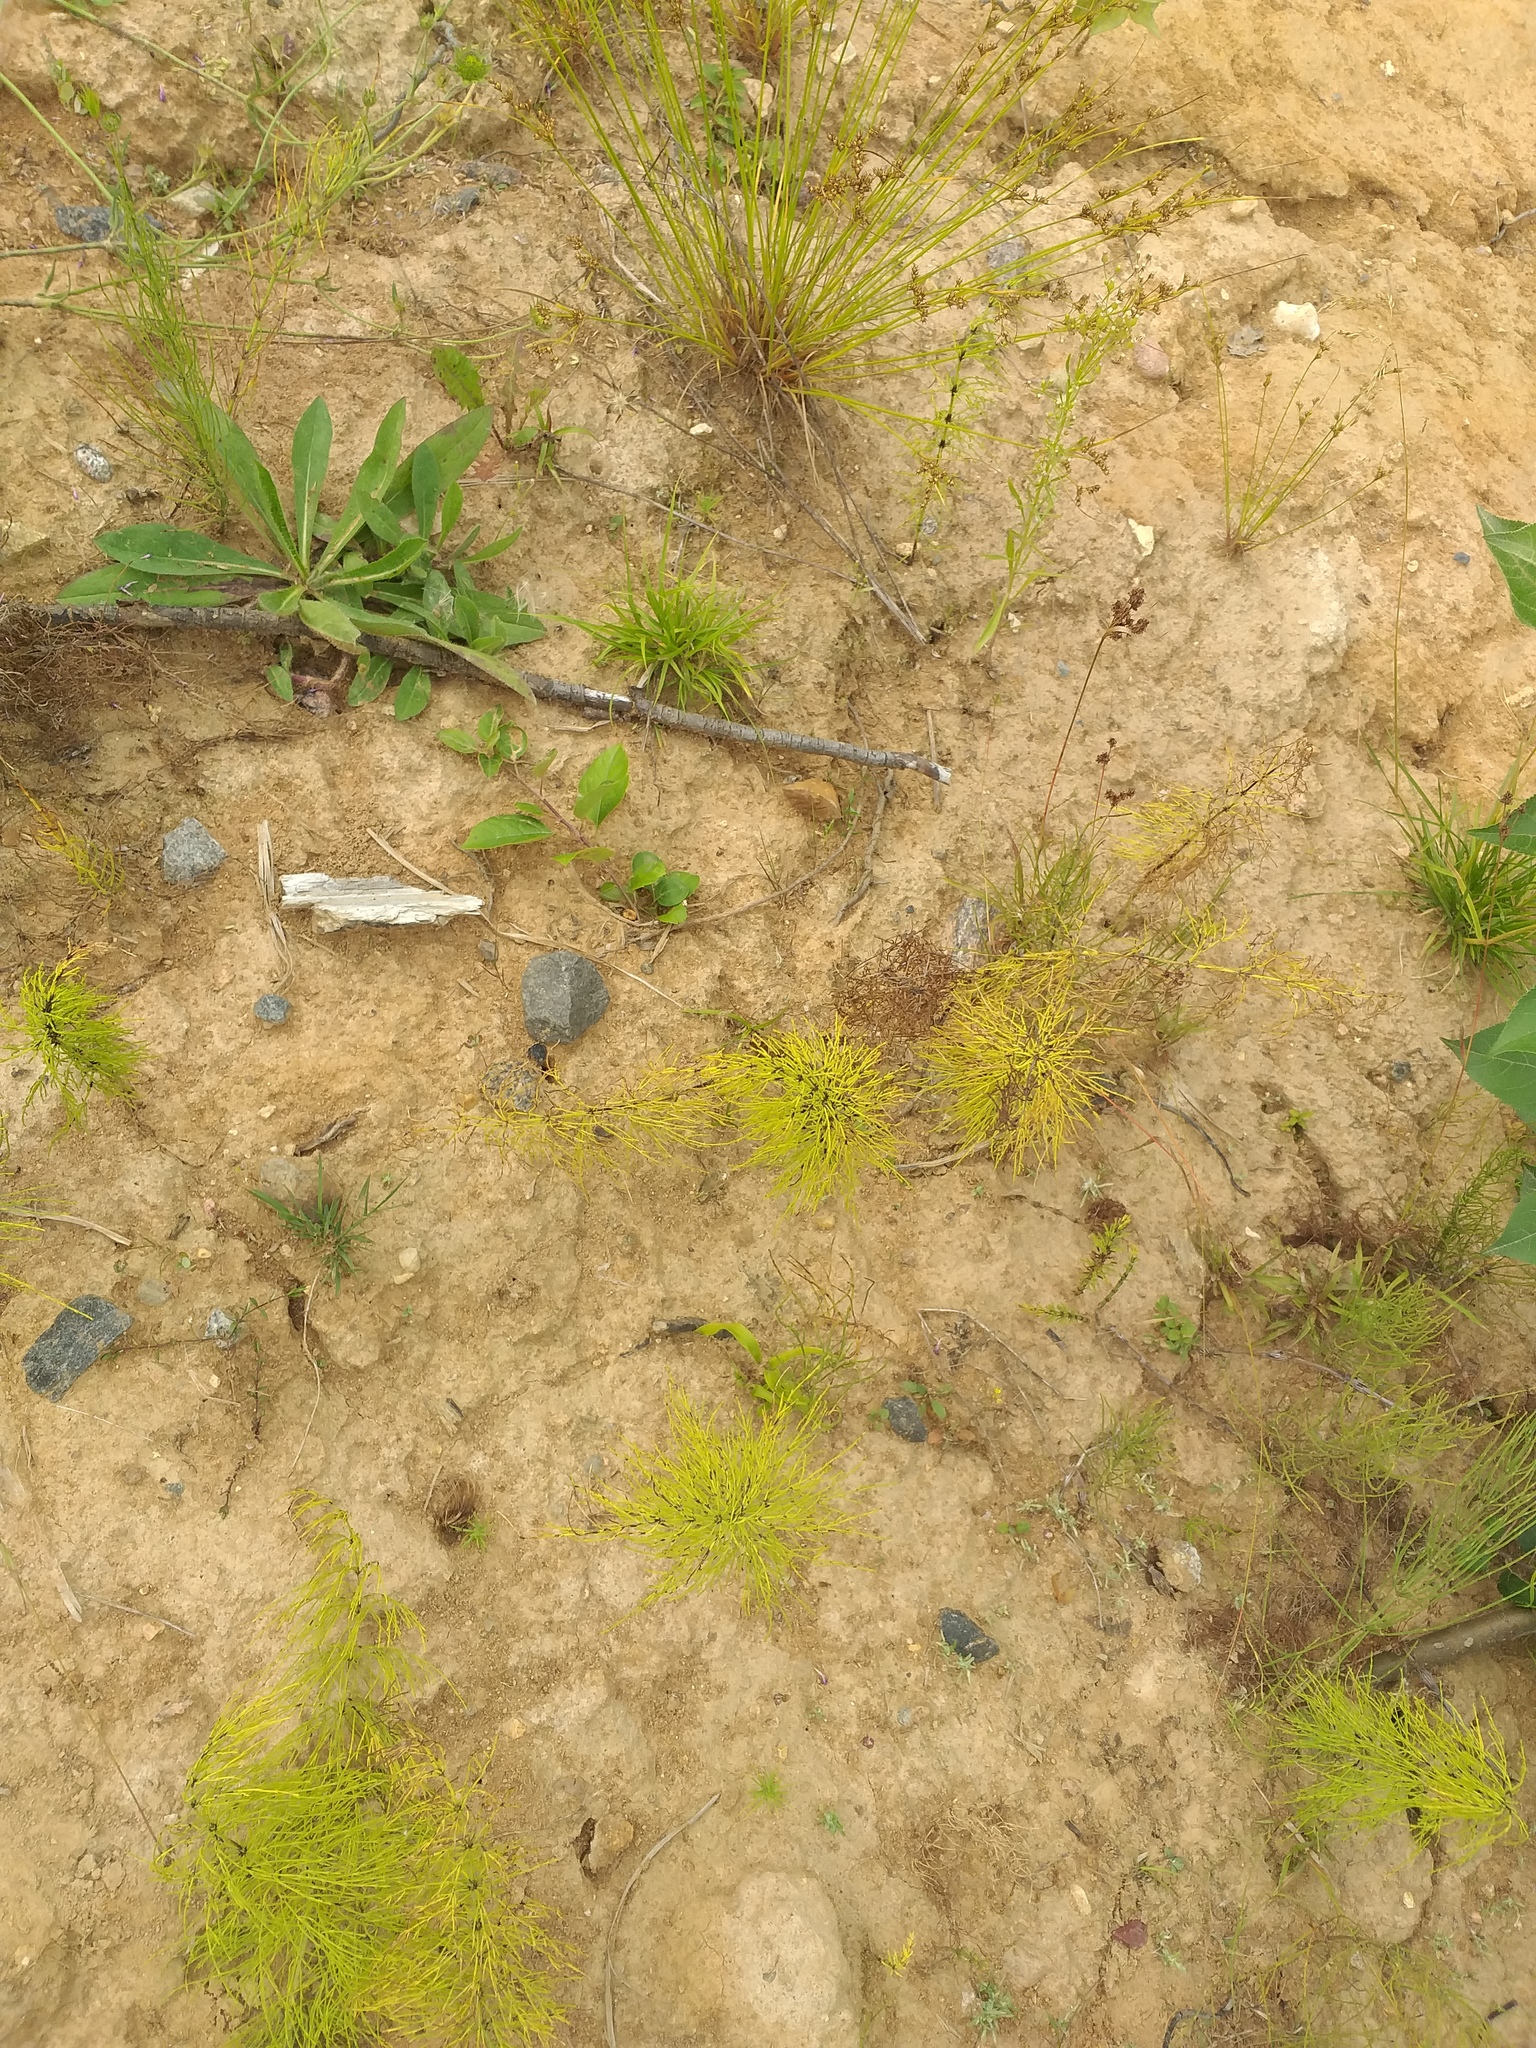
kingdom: Plantae
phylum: Tracheophyta
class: Polypodiopsida
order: Equisetales
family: Equisetaceae
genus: Equisetum
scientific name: Equisetum sylvaticum
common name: Wood horsetail
